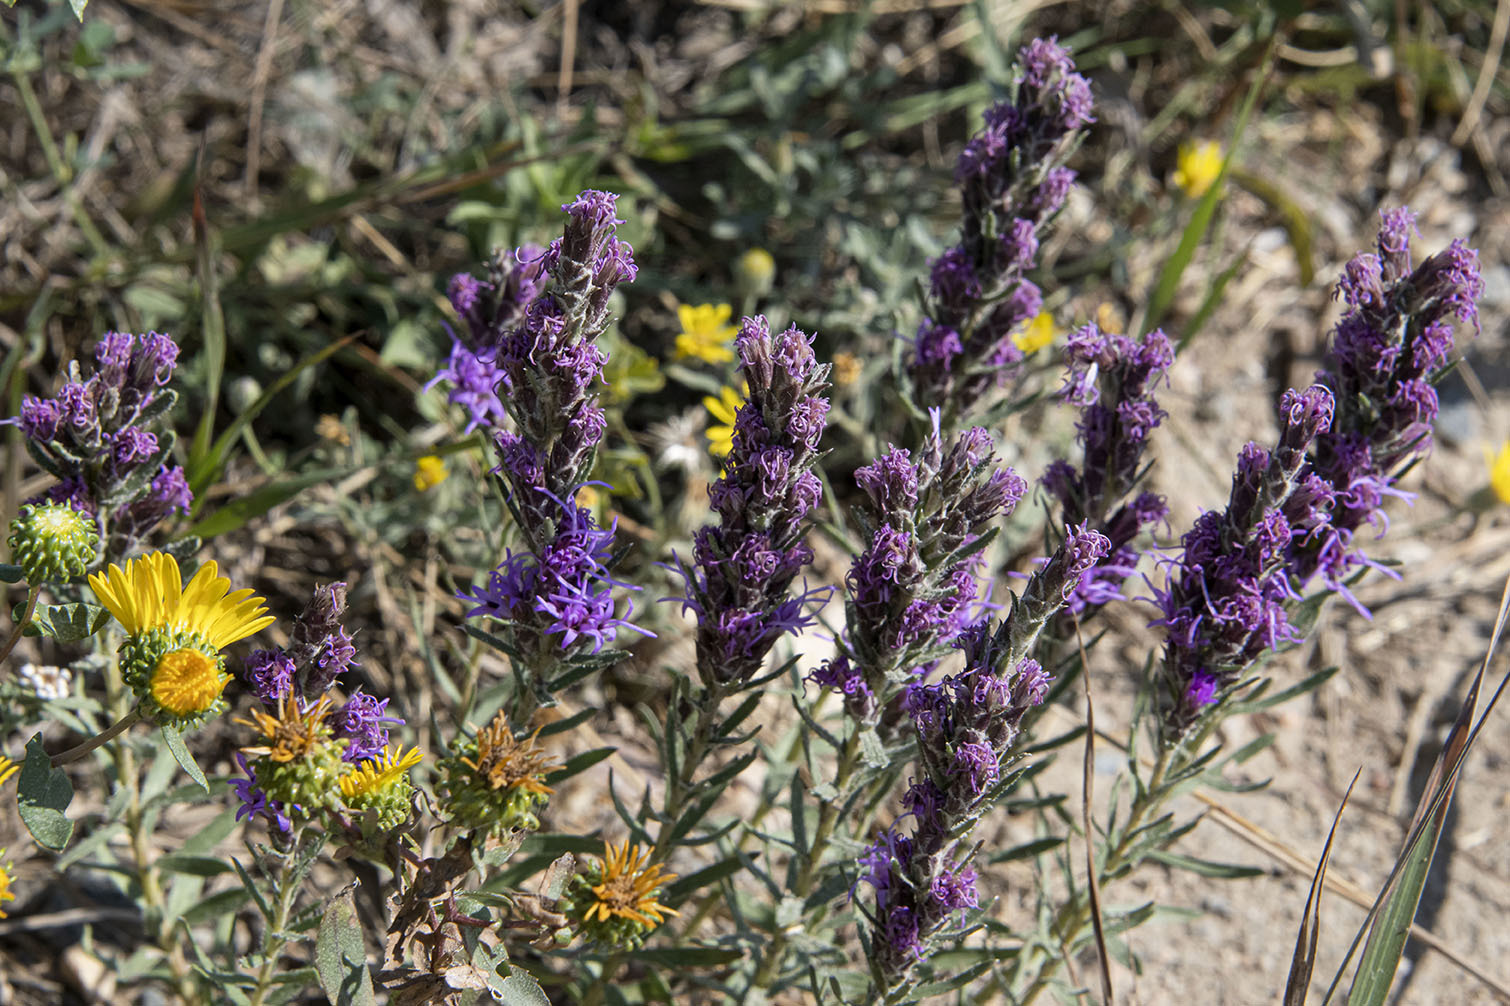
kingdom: Plantae
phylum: Tracheophyta
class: Magnoliopsida
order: Asterales
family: Asteraceae
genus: Liatris
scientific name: Liatris punctata
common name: Dotted gayfeather
